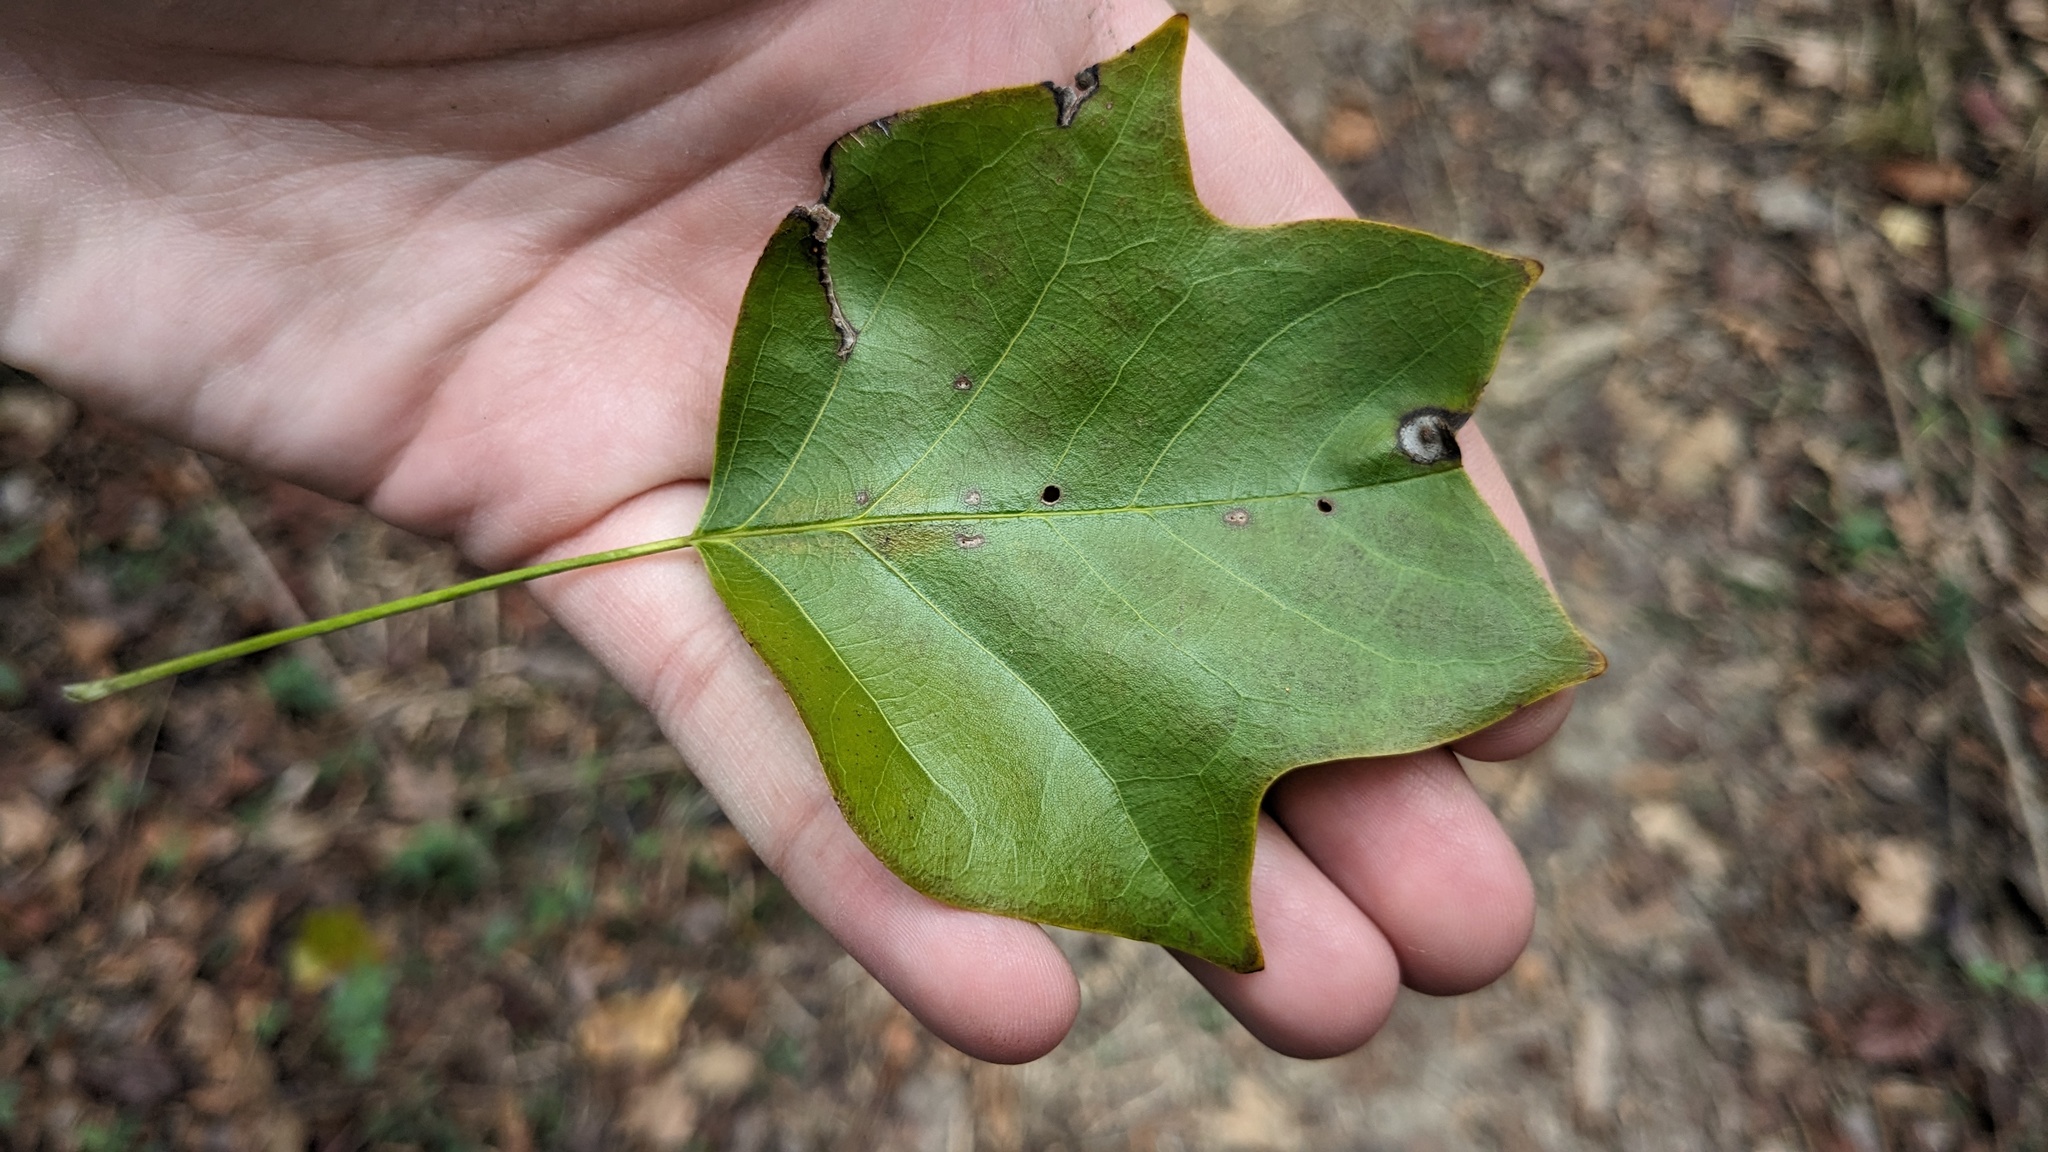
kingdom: Plantae
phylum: Tracheophyta
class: Magnoliopsida
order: Magnoliales
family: Magnoliaceae
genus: Liriodendron
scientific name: Liriodendron tulipifera
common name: Tulip tree
